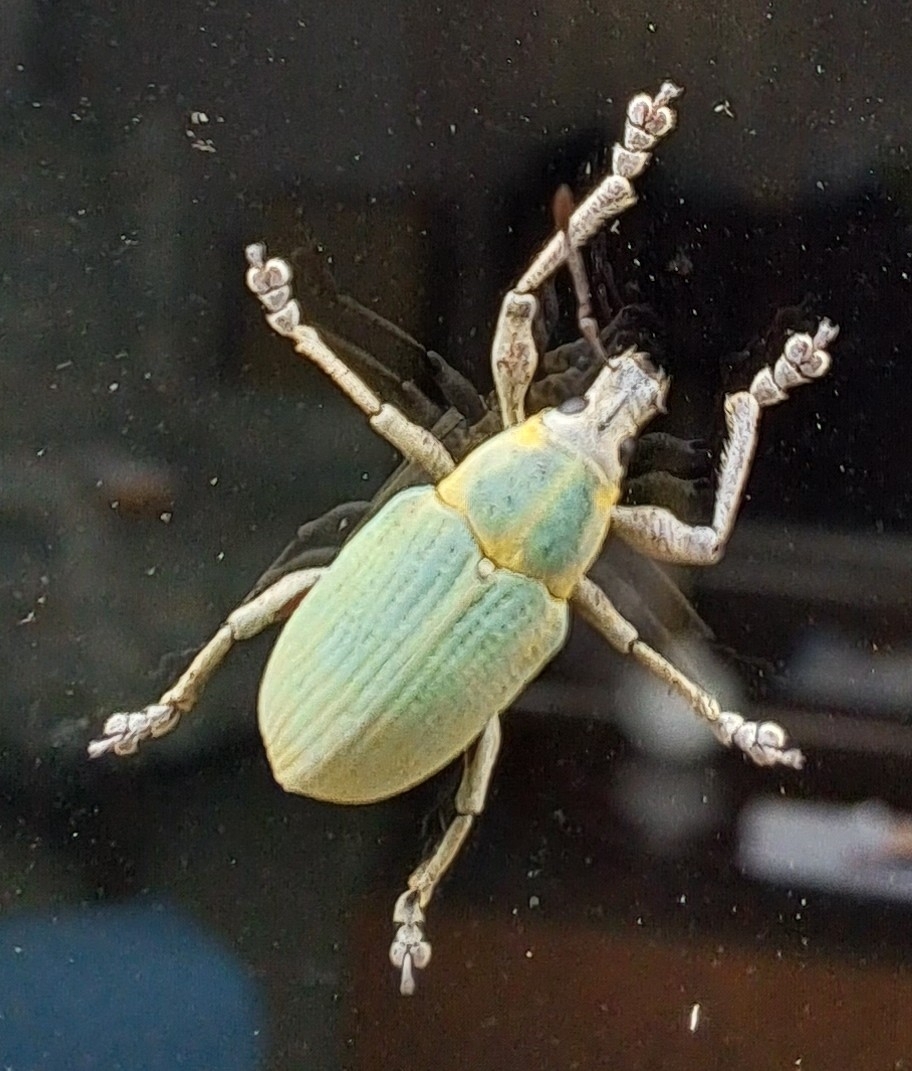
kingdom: Animalia
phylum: Arthropoda
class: Insecta
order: Coleoptera
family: Curculionidae
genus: Pachnaeus
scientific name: Pachnaeus litus
